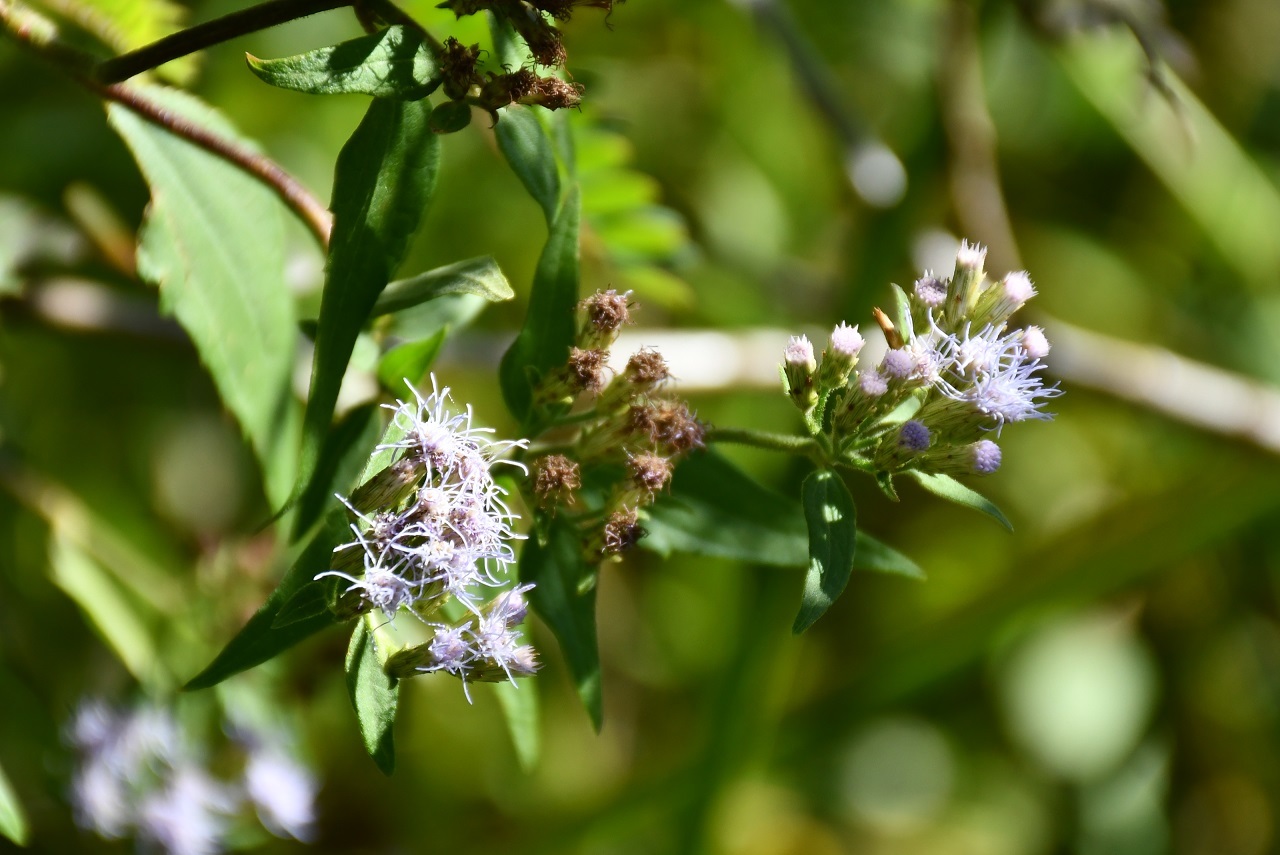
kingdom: Plantae
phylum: Tracheophyta
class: Magnoliopsida
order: Asterales
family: Asteraceae
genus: Chromolaena
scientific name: Chromolaena odorata
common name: Siamweed
